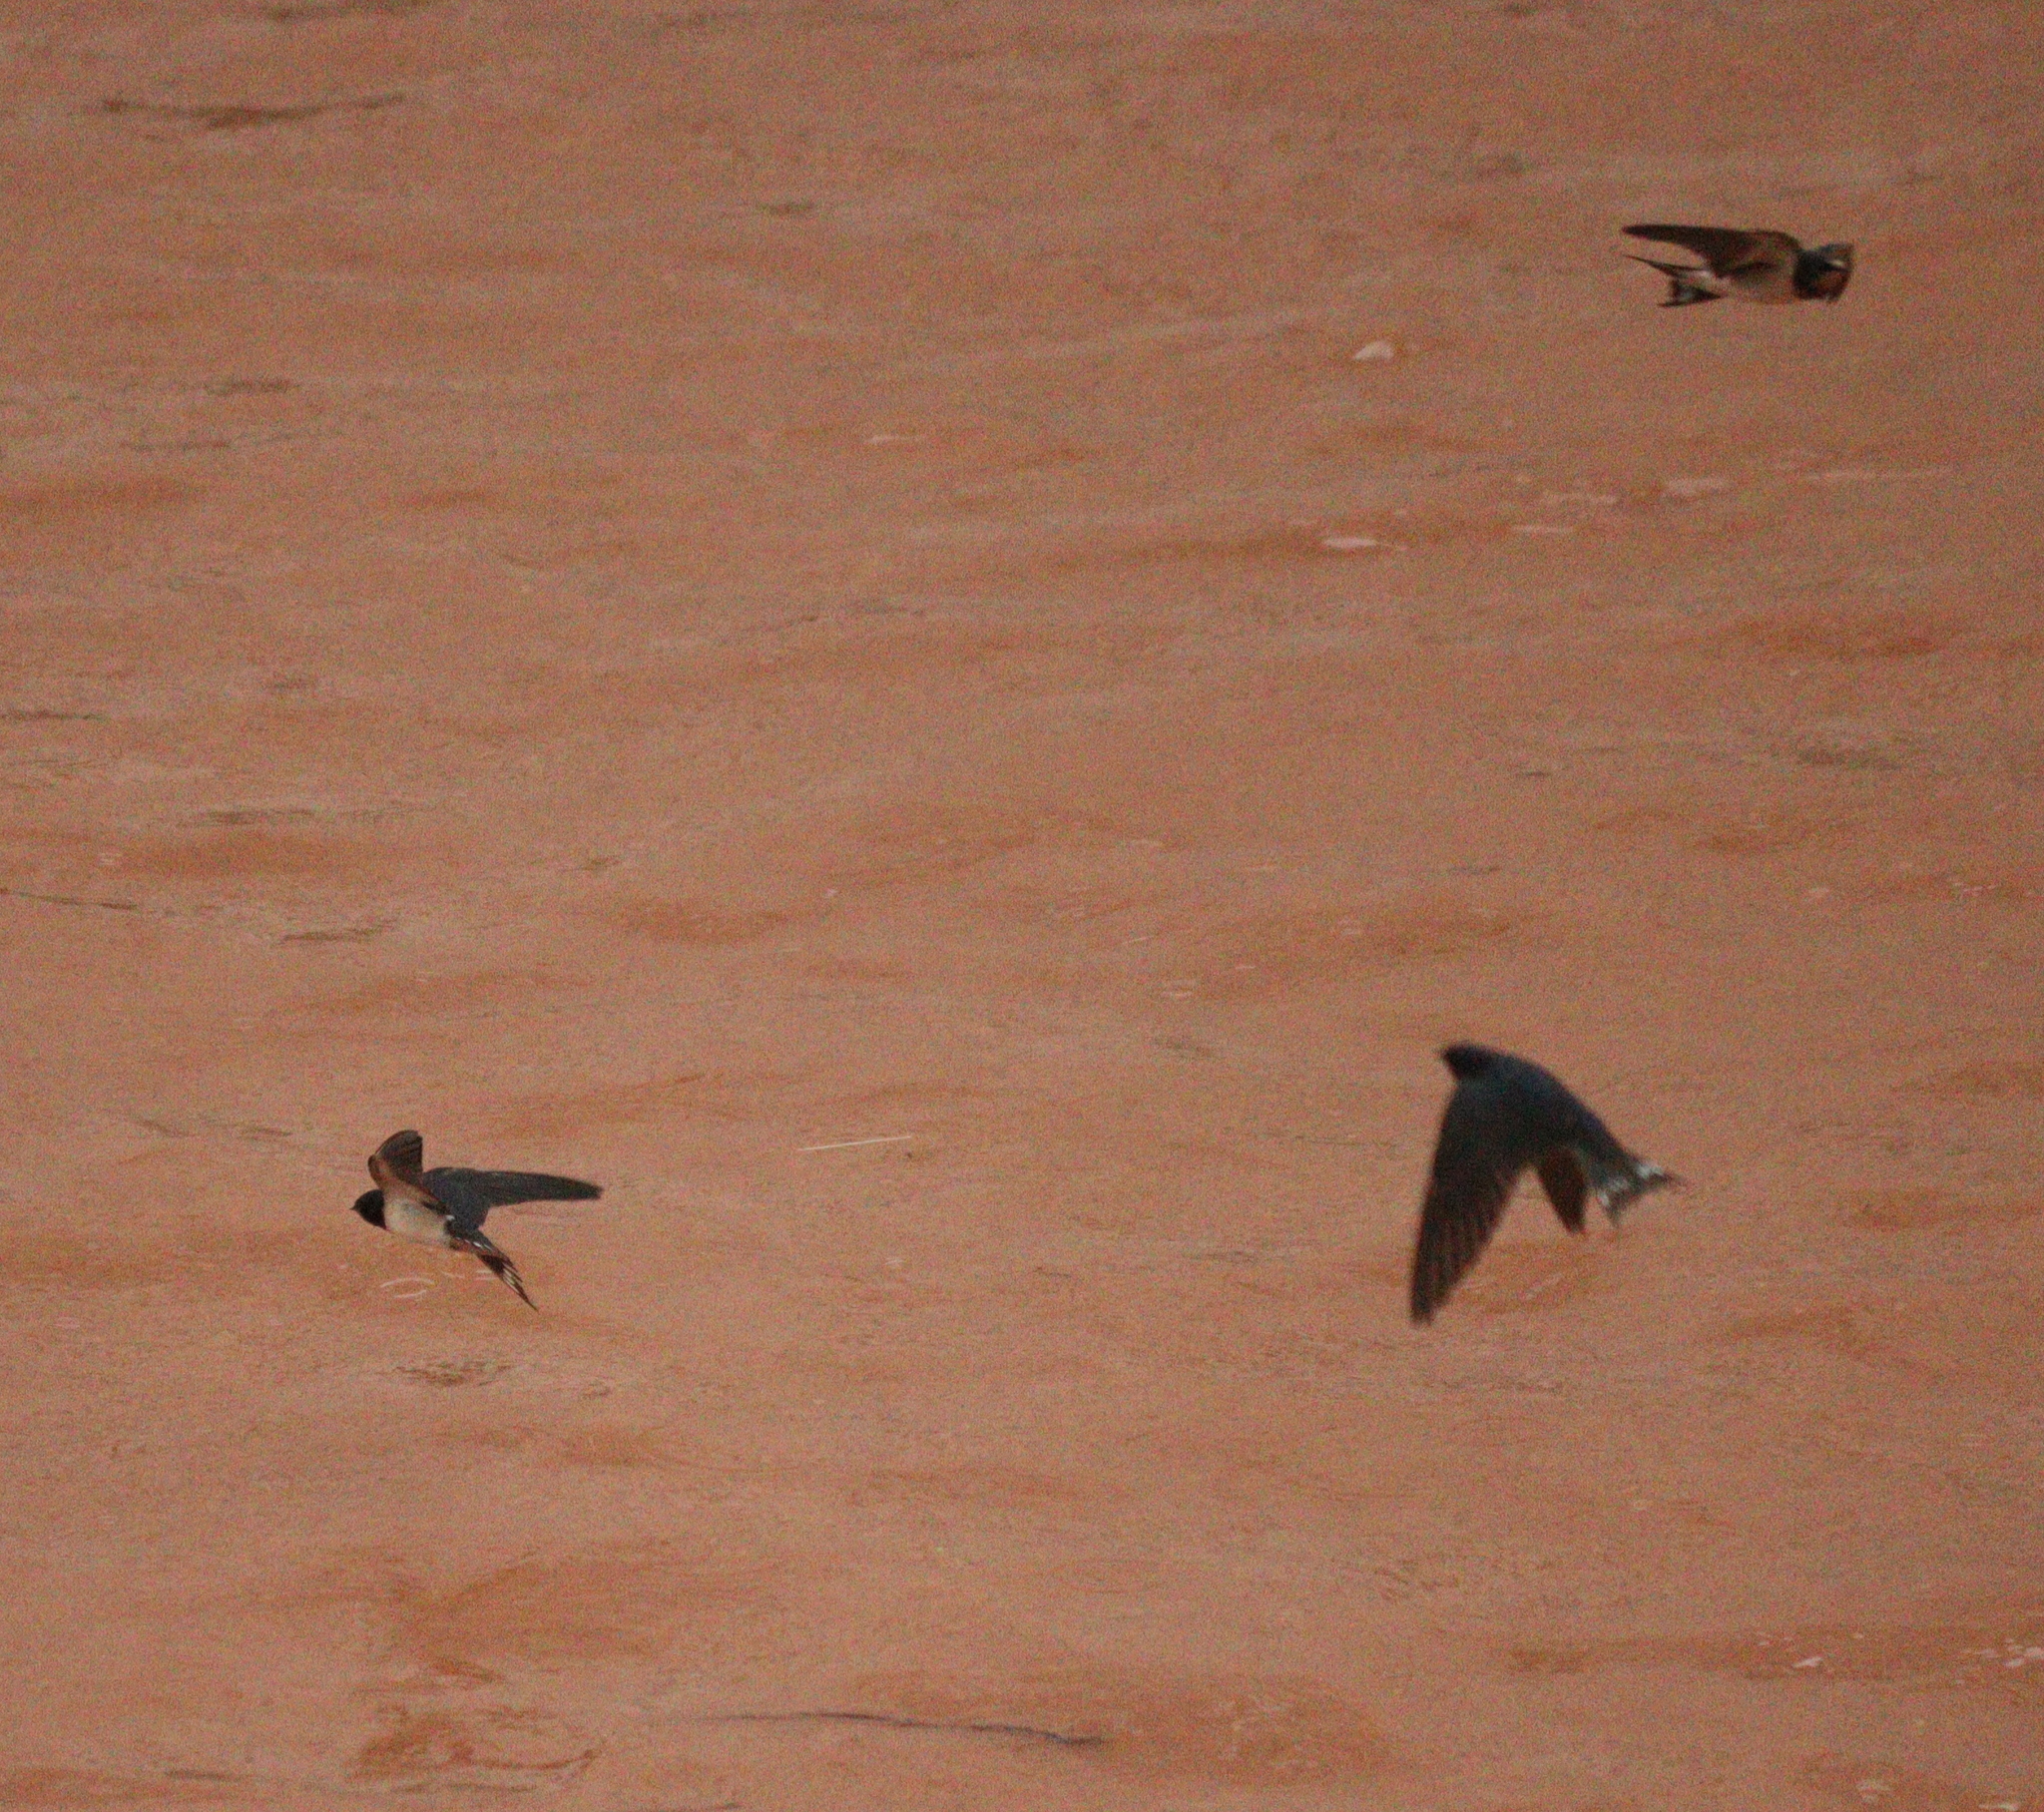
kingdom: Animalia
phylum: Chordata
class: Aves
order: Passeriformes
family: Hirundinidae
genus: Hirundo
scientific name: Hirundo rustica
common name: Barn swallow
